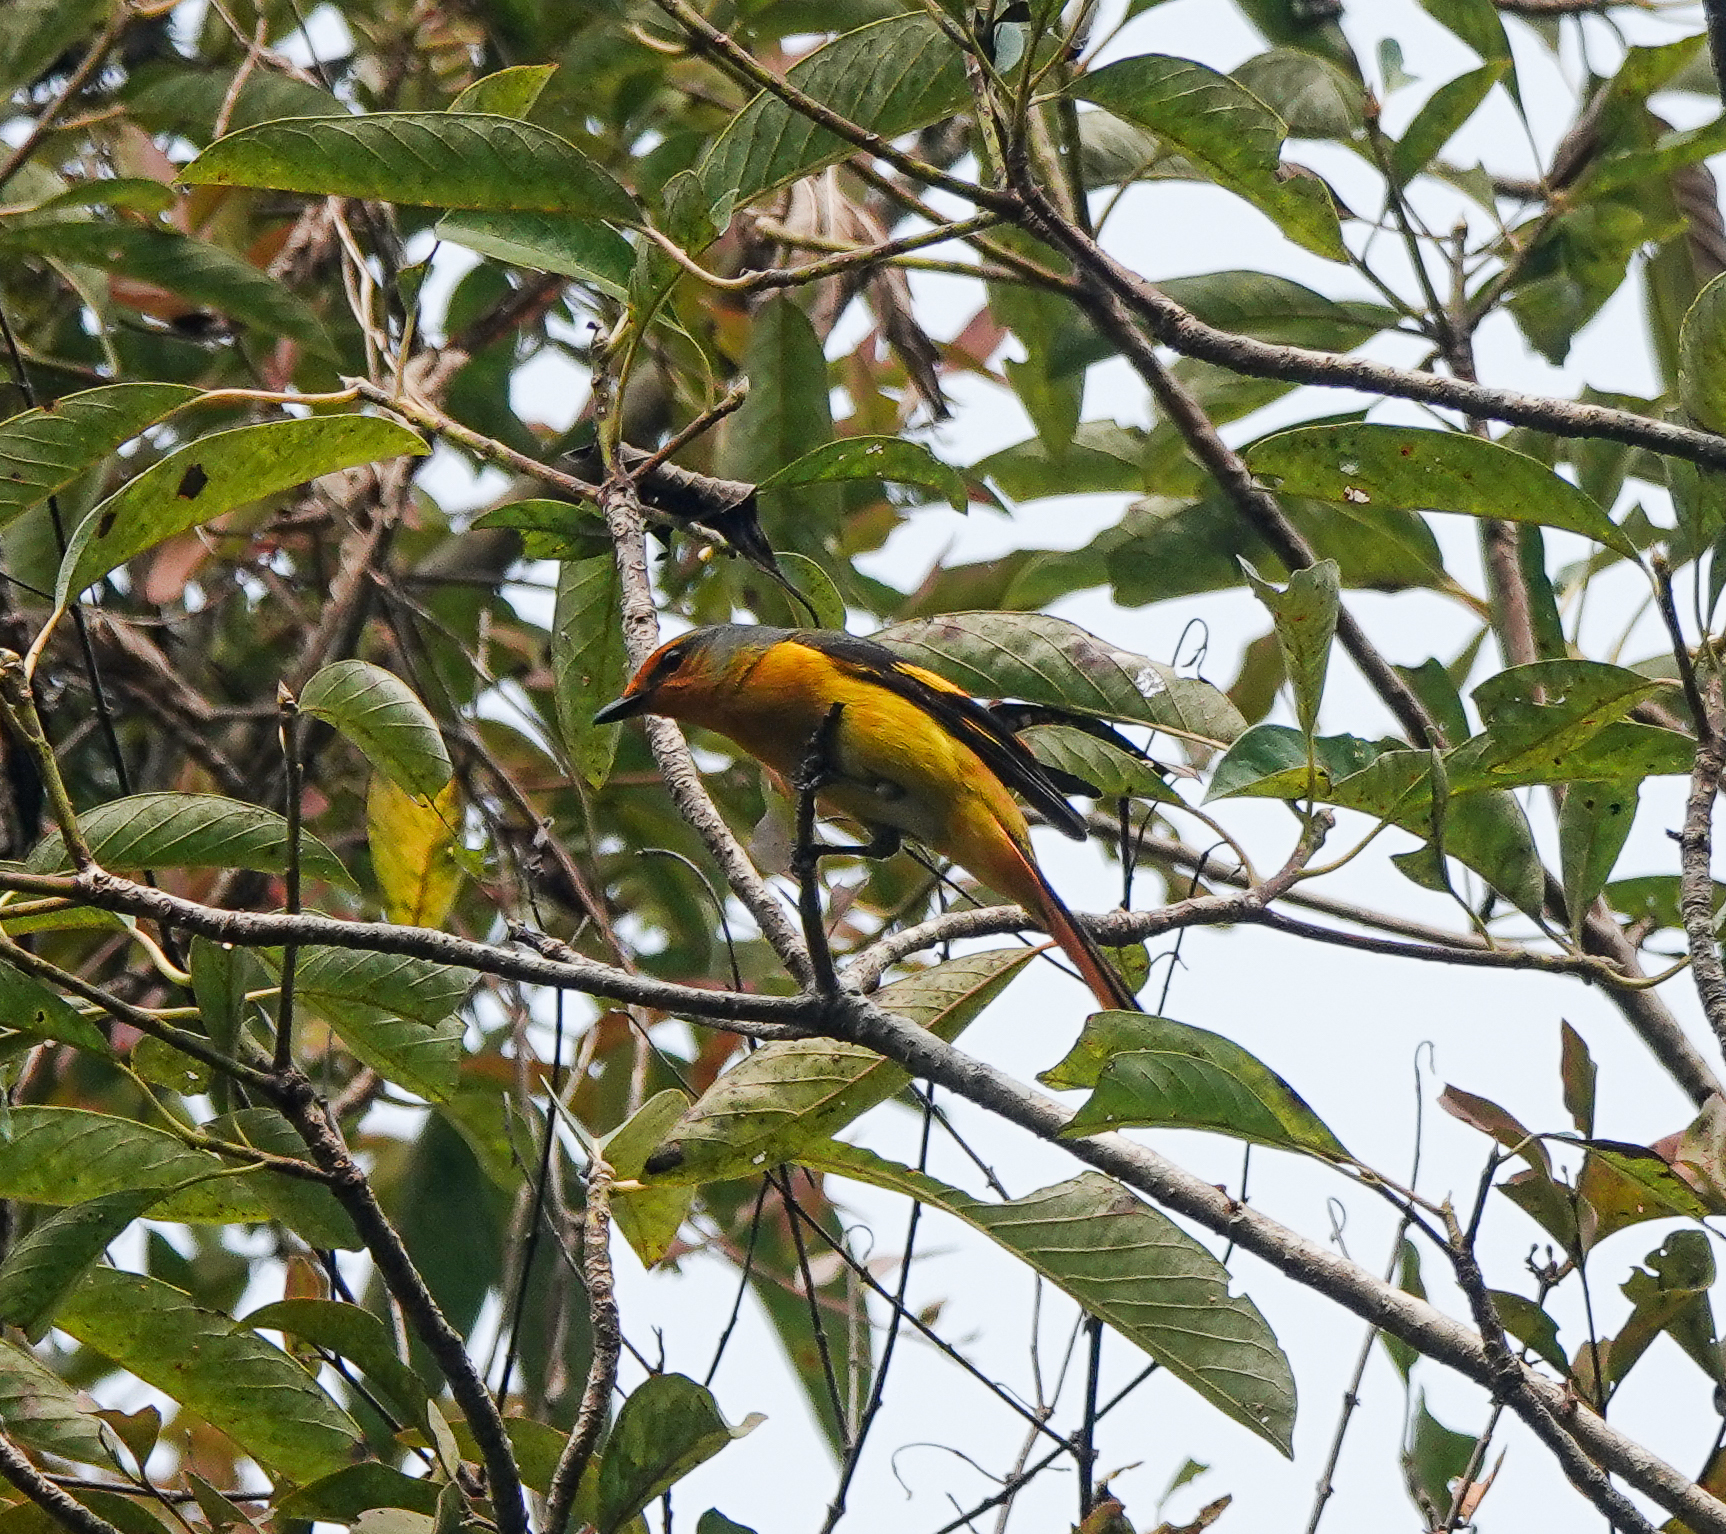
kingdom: Animalia
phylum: Chordata
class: Aves
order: Passeriformes
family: Campephagidae
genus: Pericrocotus
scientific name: Pericrocotus roseus
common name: Rosy minivet
